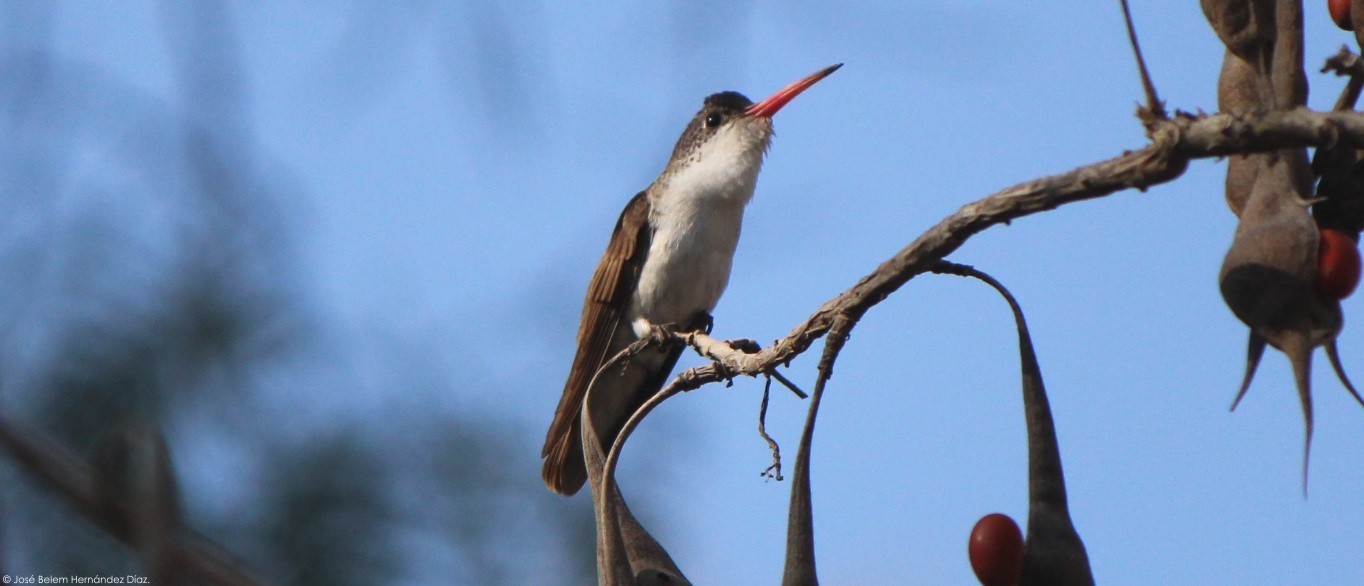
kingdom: Animalia
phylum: Chordata
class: Aves
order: Apodiformes
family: Trochilidae
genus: Leucolia
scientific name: Leucolia violiceps
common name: Violet-crowned hummingbird
